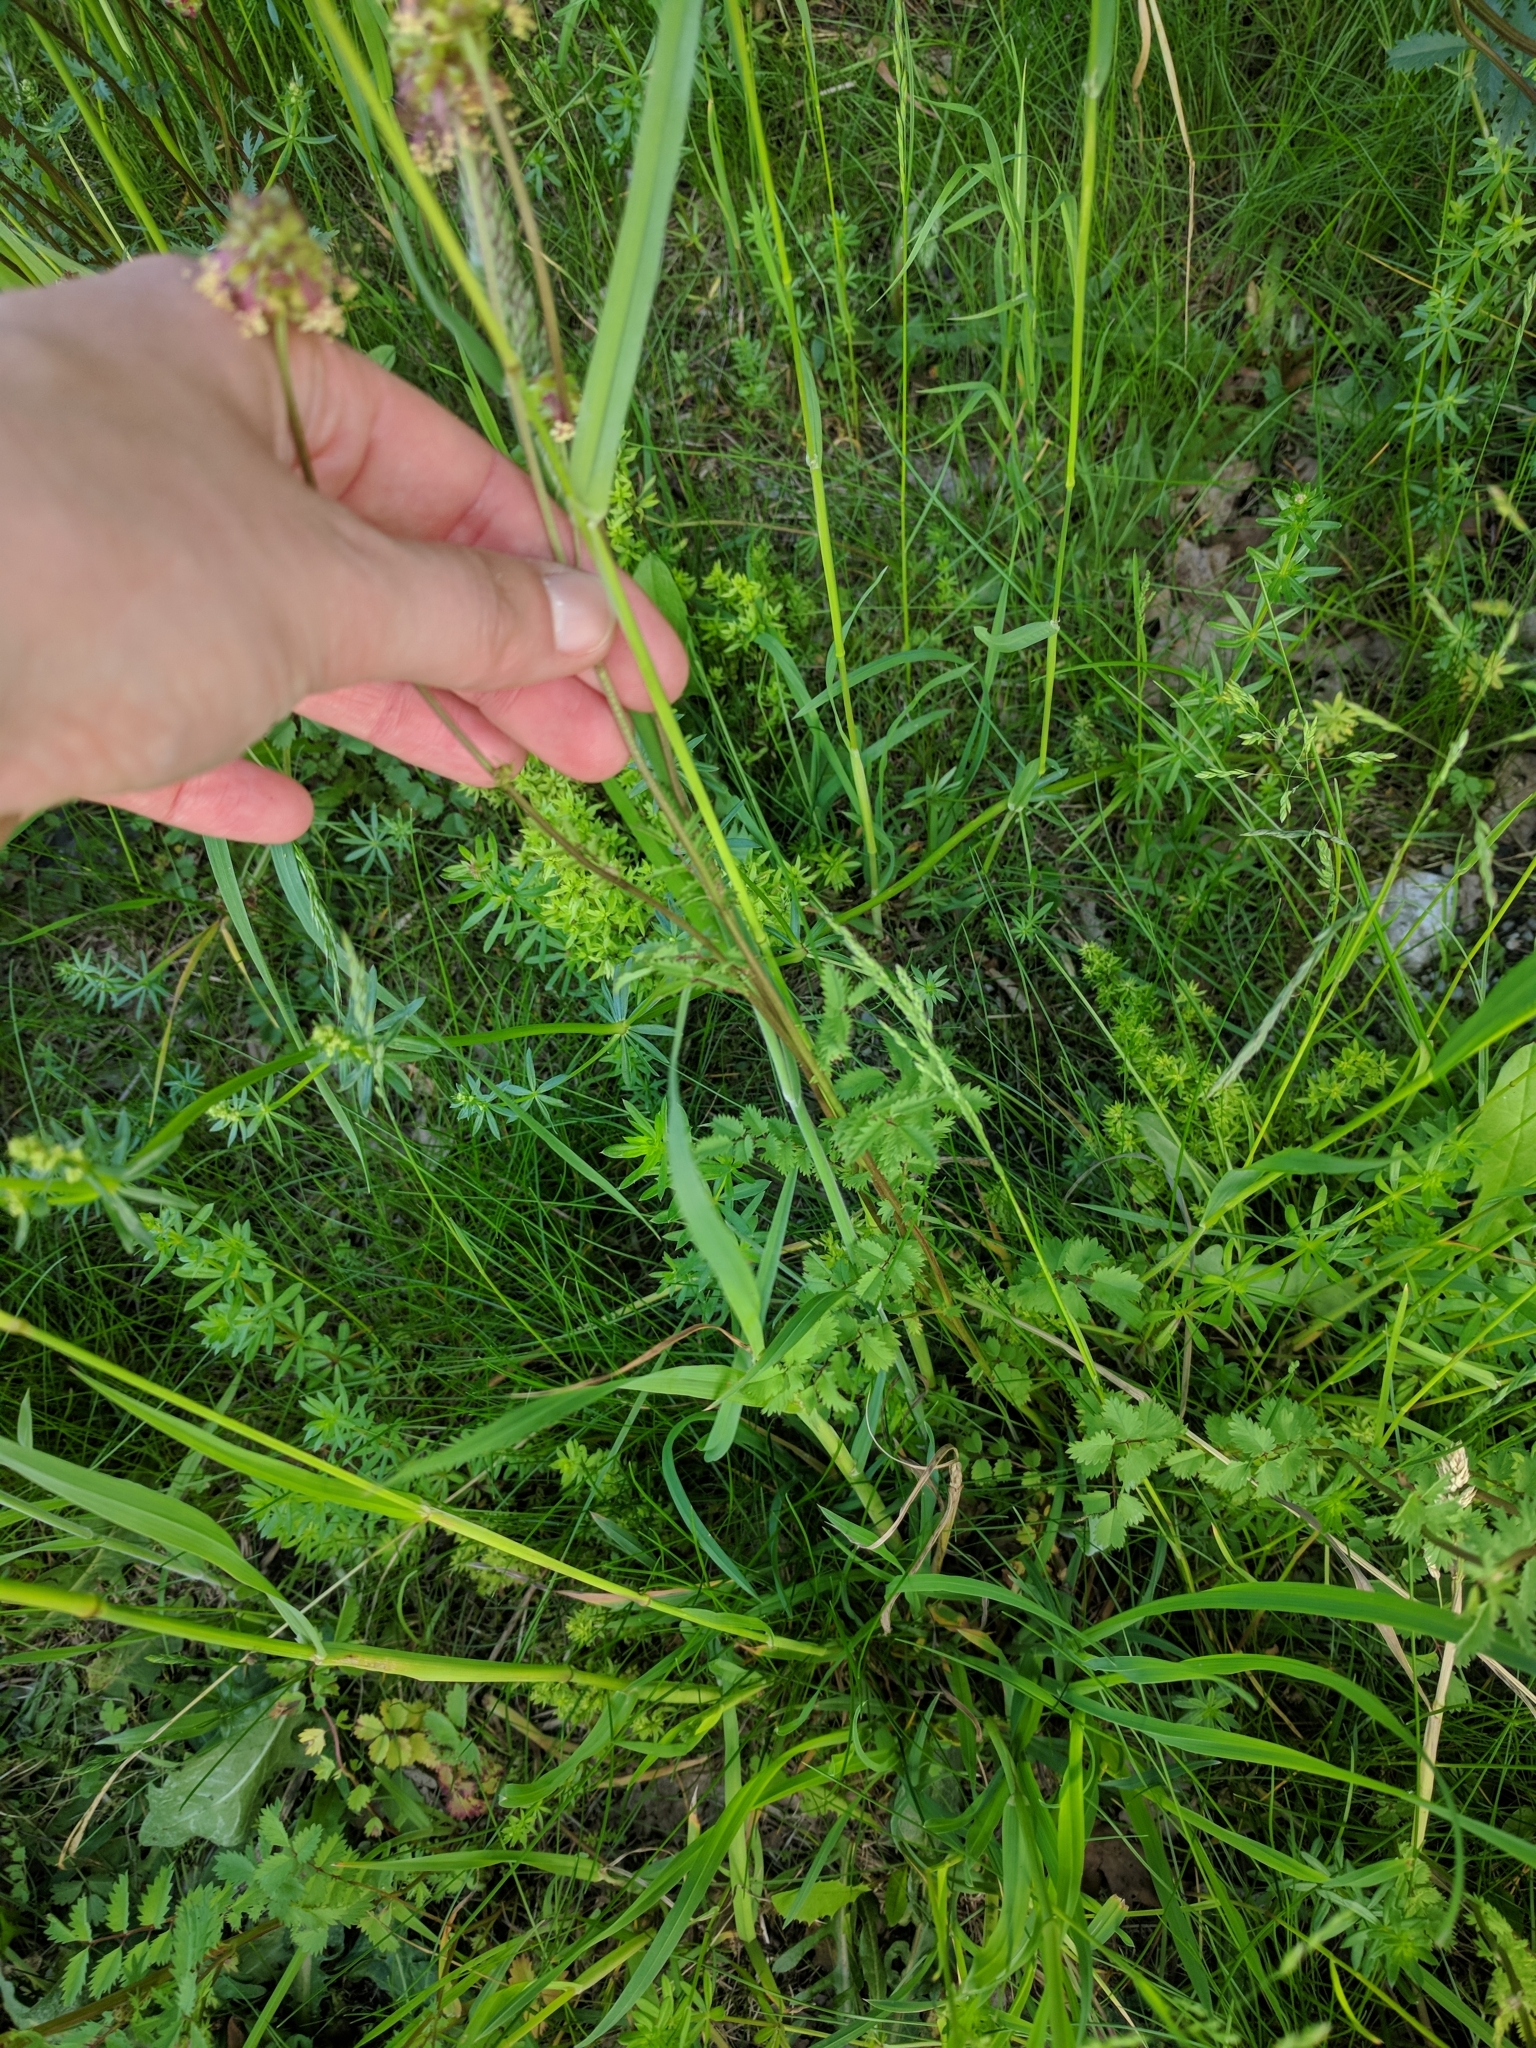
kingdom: Plantae
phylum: Tracheophyta
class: Magnoliopsida
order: Rosales
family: Rosaceae
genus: Poterium
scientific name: Poterium sanguisorba
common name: Salad burnet
